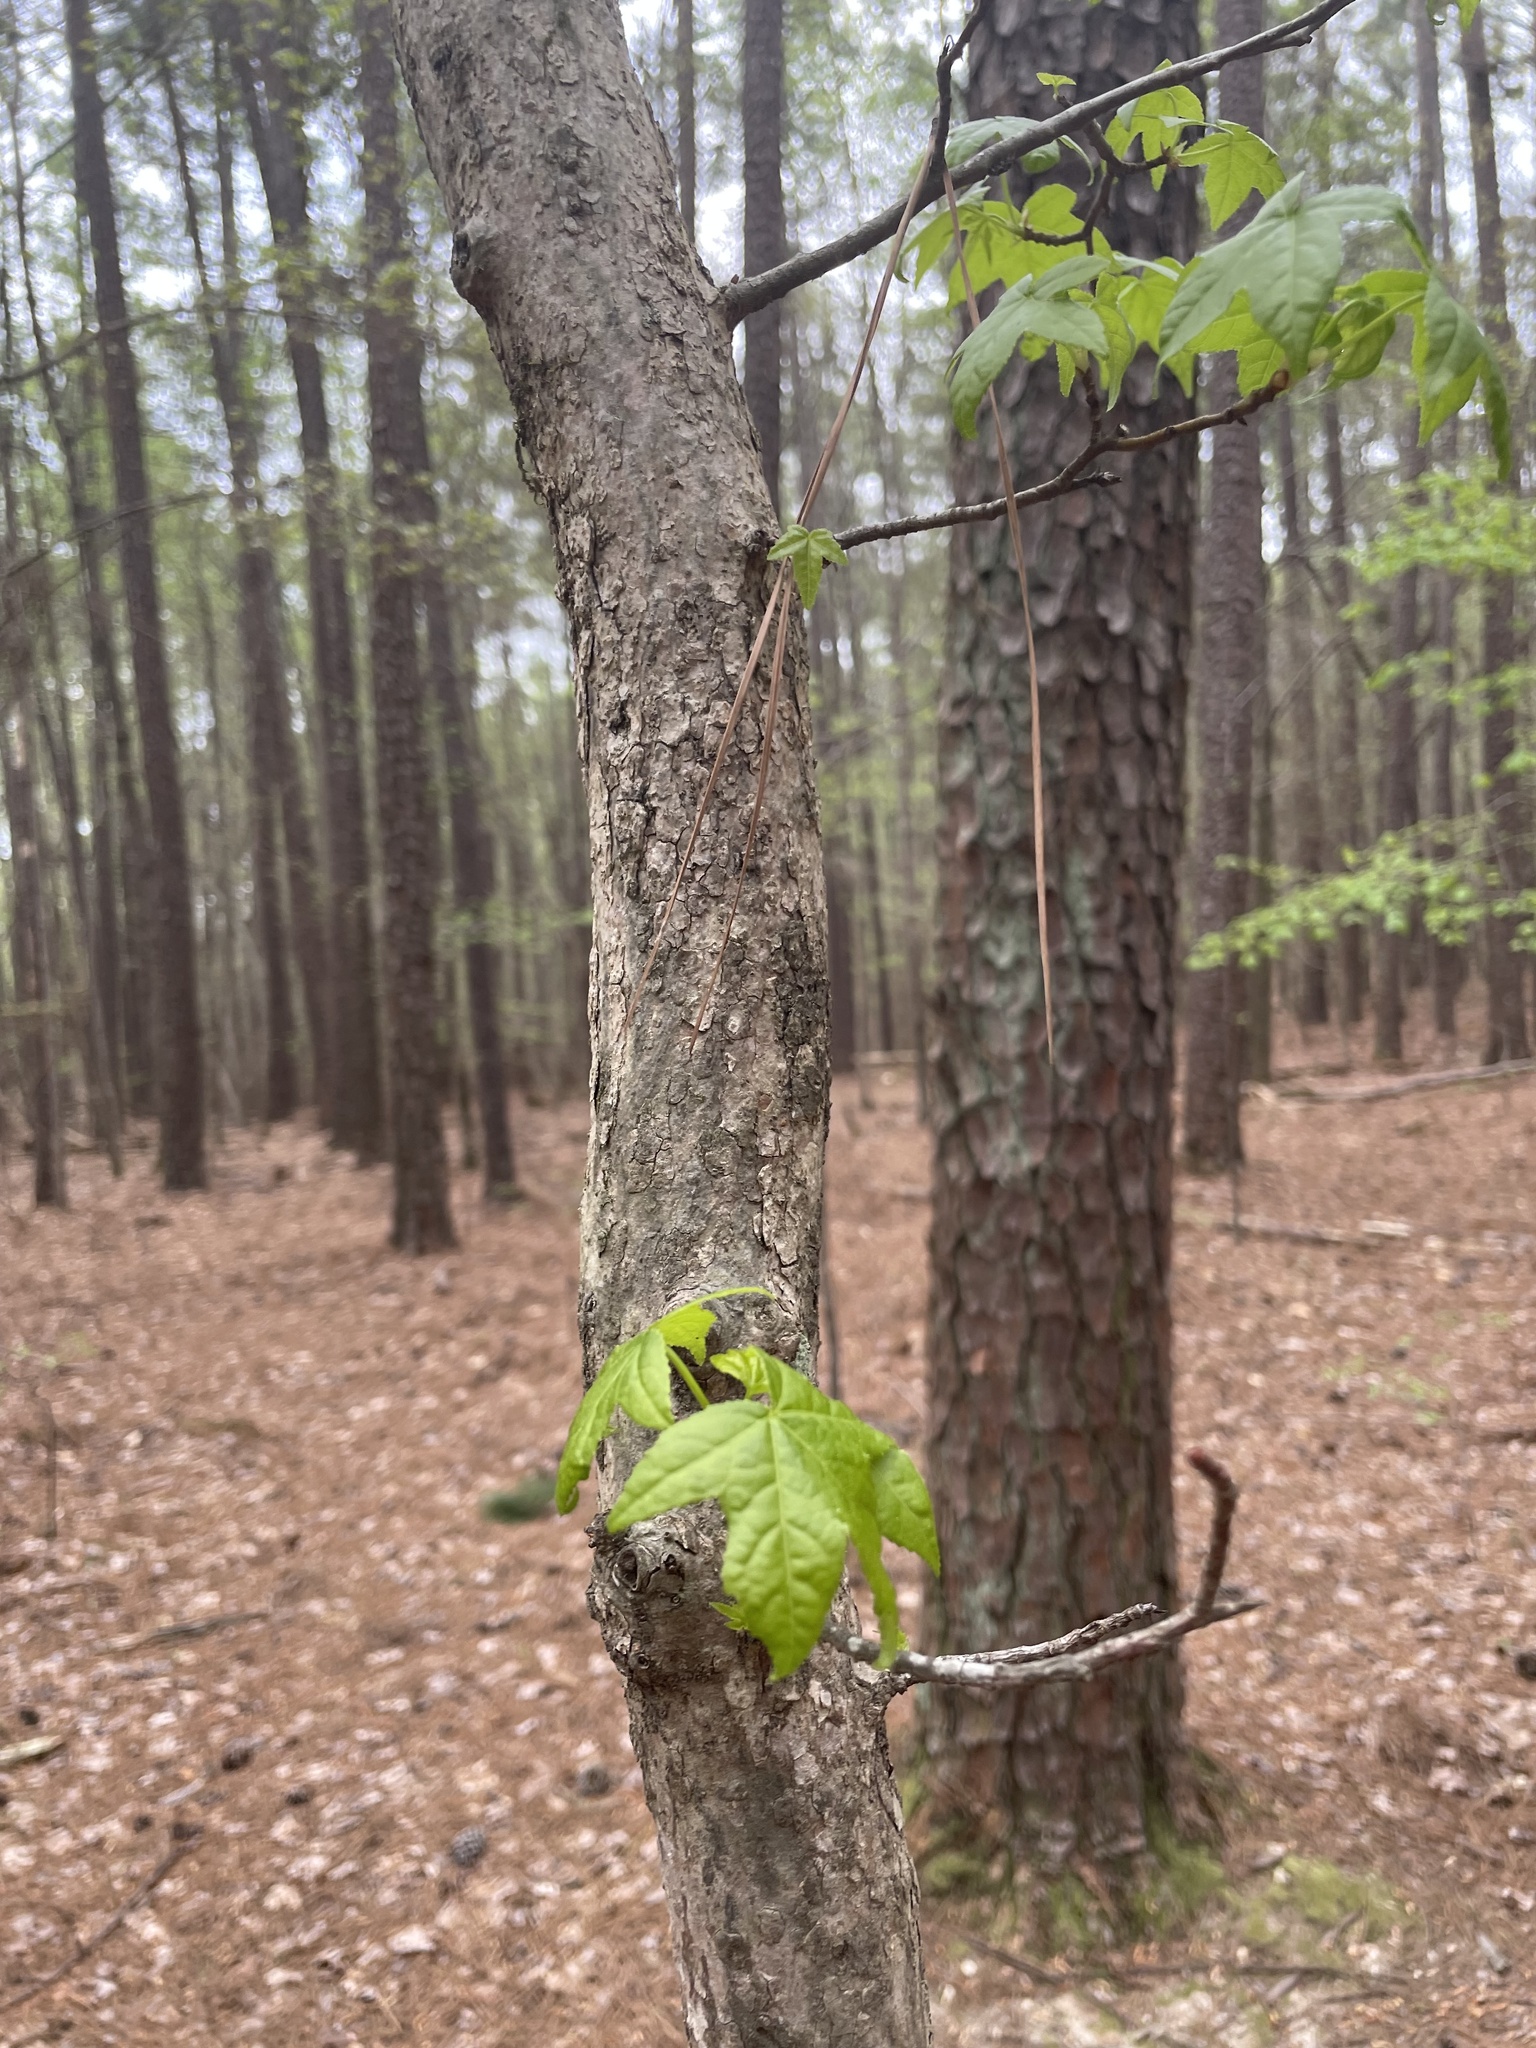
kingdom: Plantae
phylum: Tracheophyta
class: Magnoliopsida
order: Saxifragales
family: Altingiaceae
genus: Liquidambar
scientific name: Liquidambar styraciflua
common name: Sweet gum
